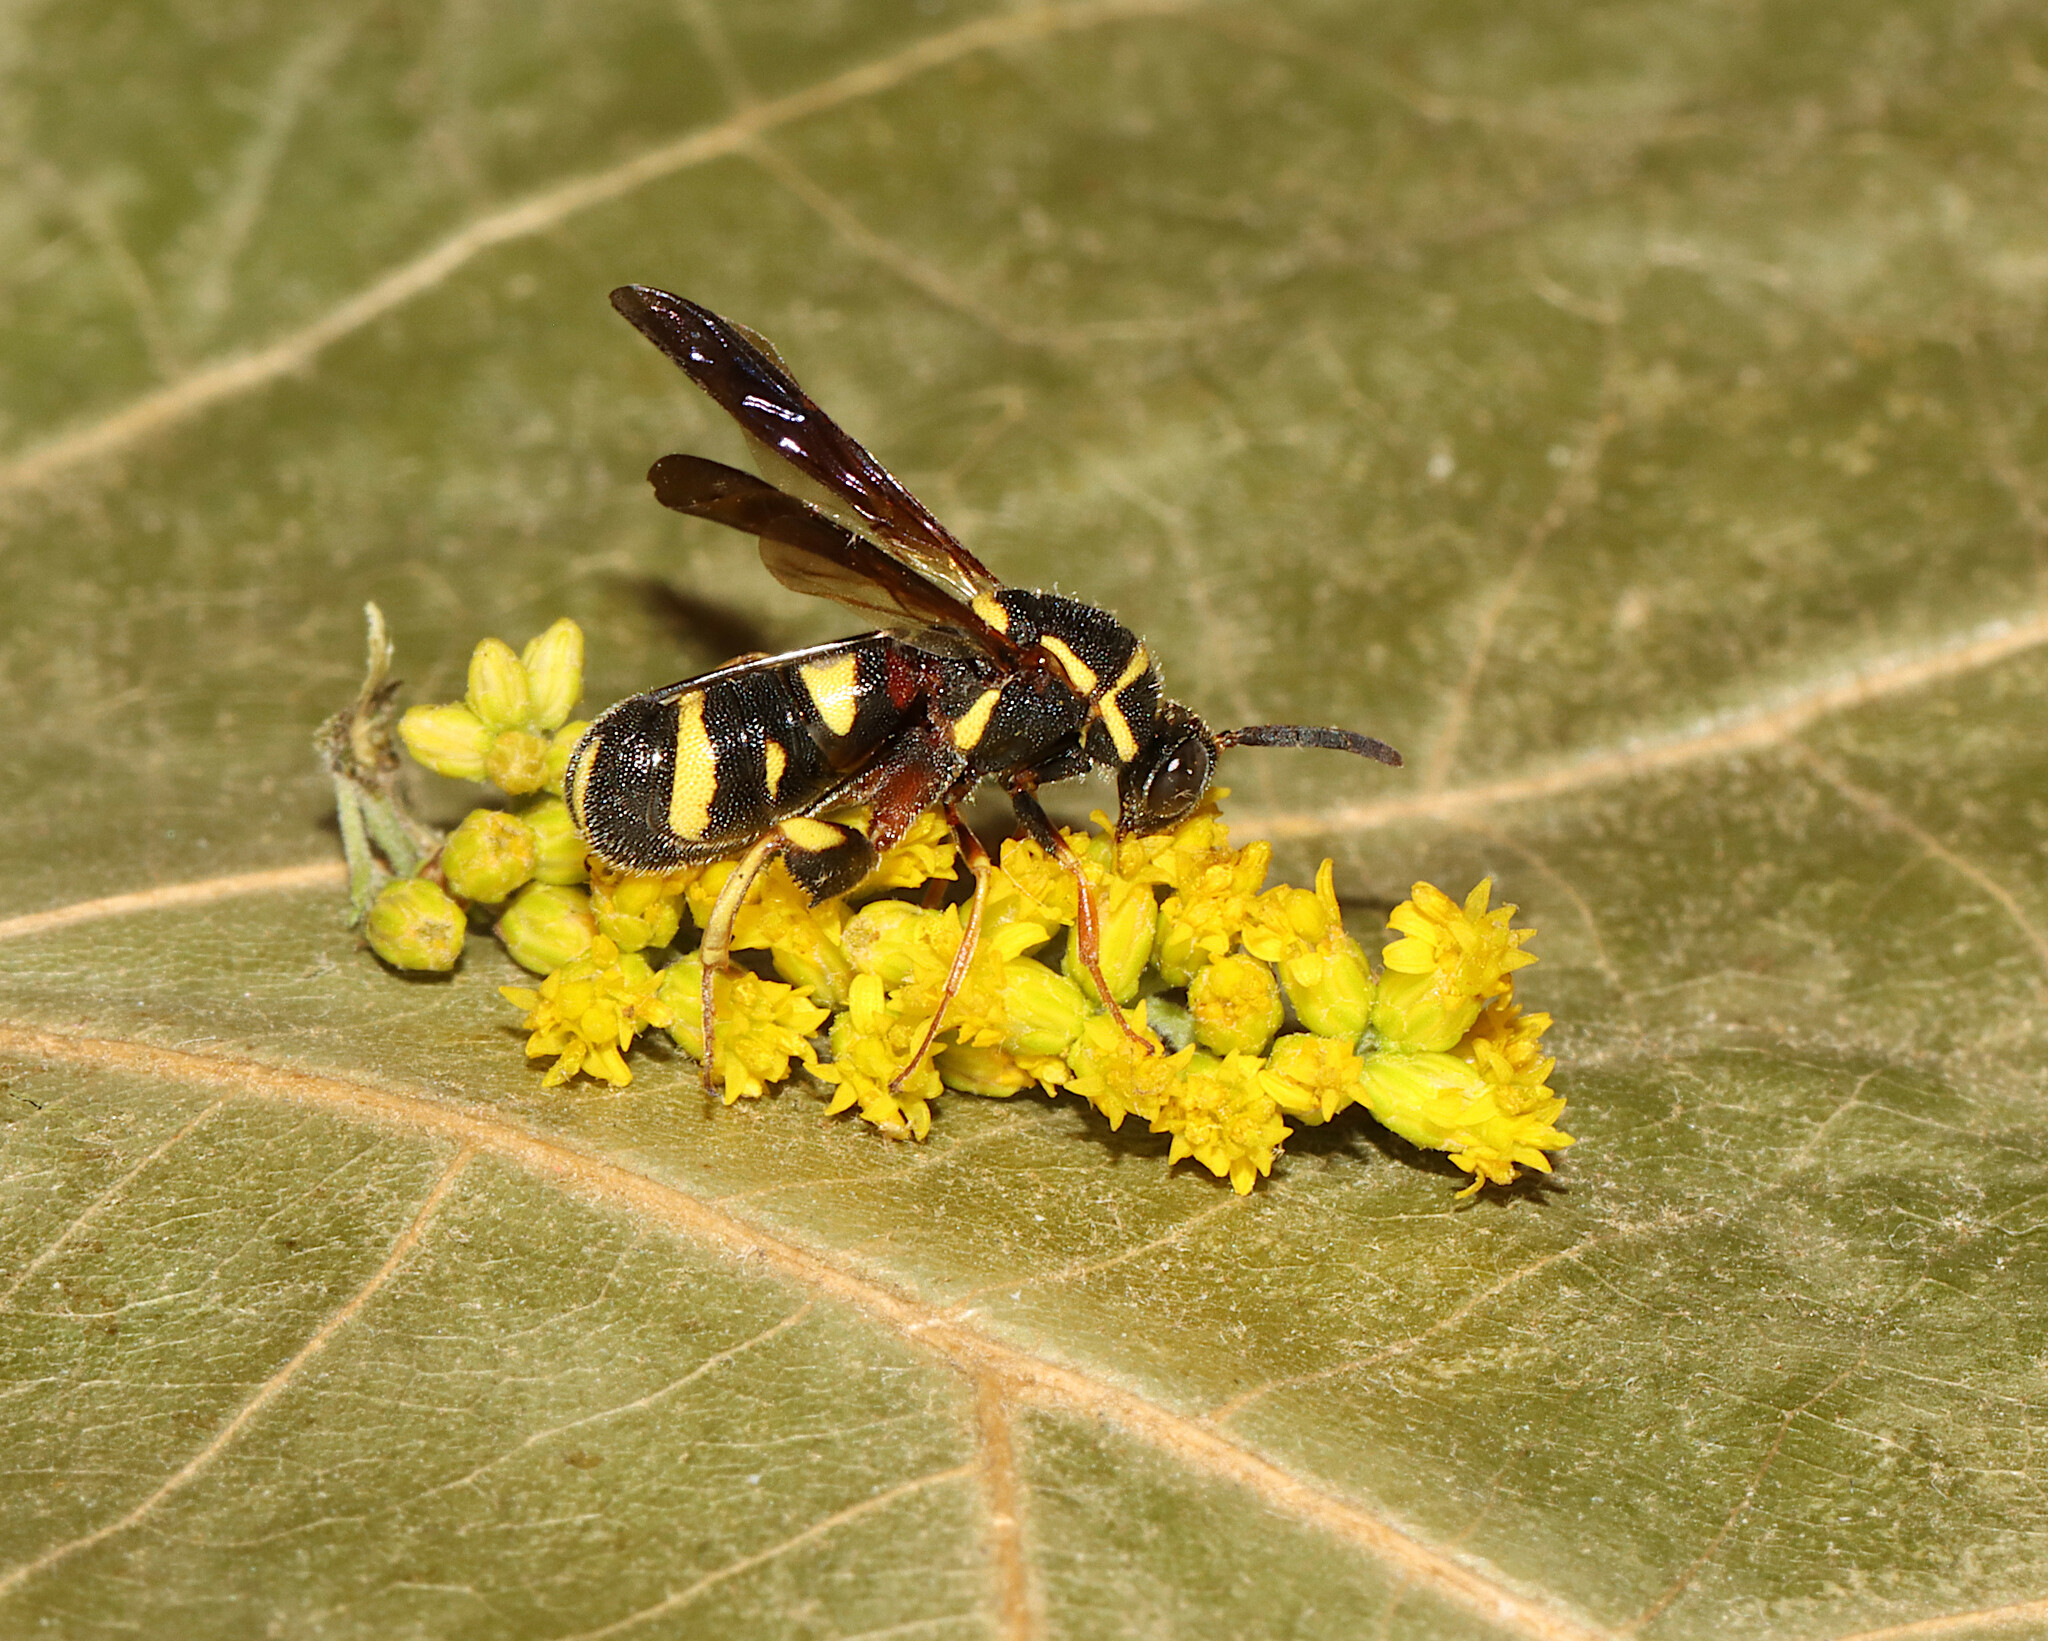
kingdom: Animalia
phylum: Arthropoda
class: Insecta
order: Hymenoptera
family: Leucospidae
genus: Leucospis
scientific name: Leucospis affinis
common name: Wasp
